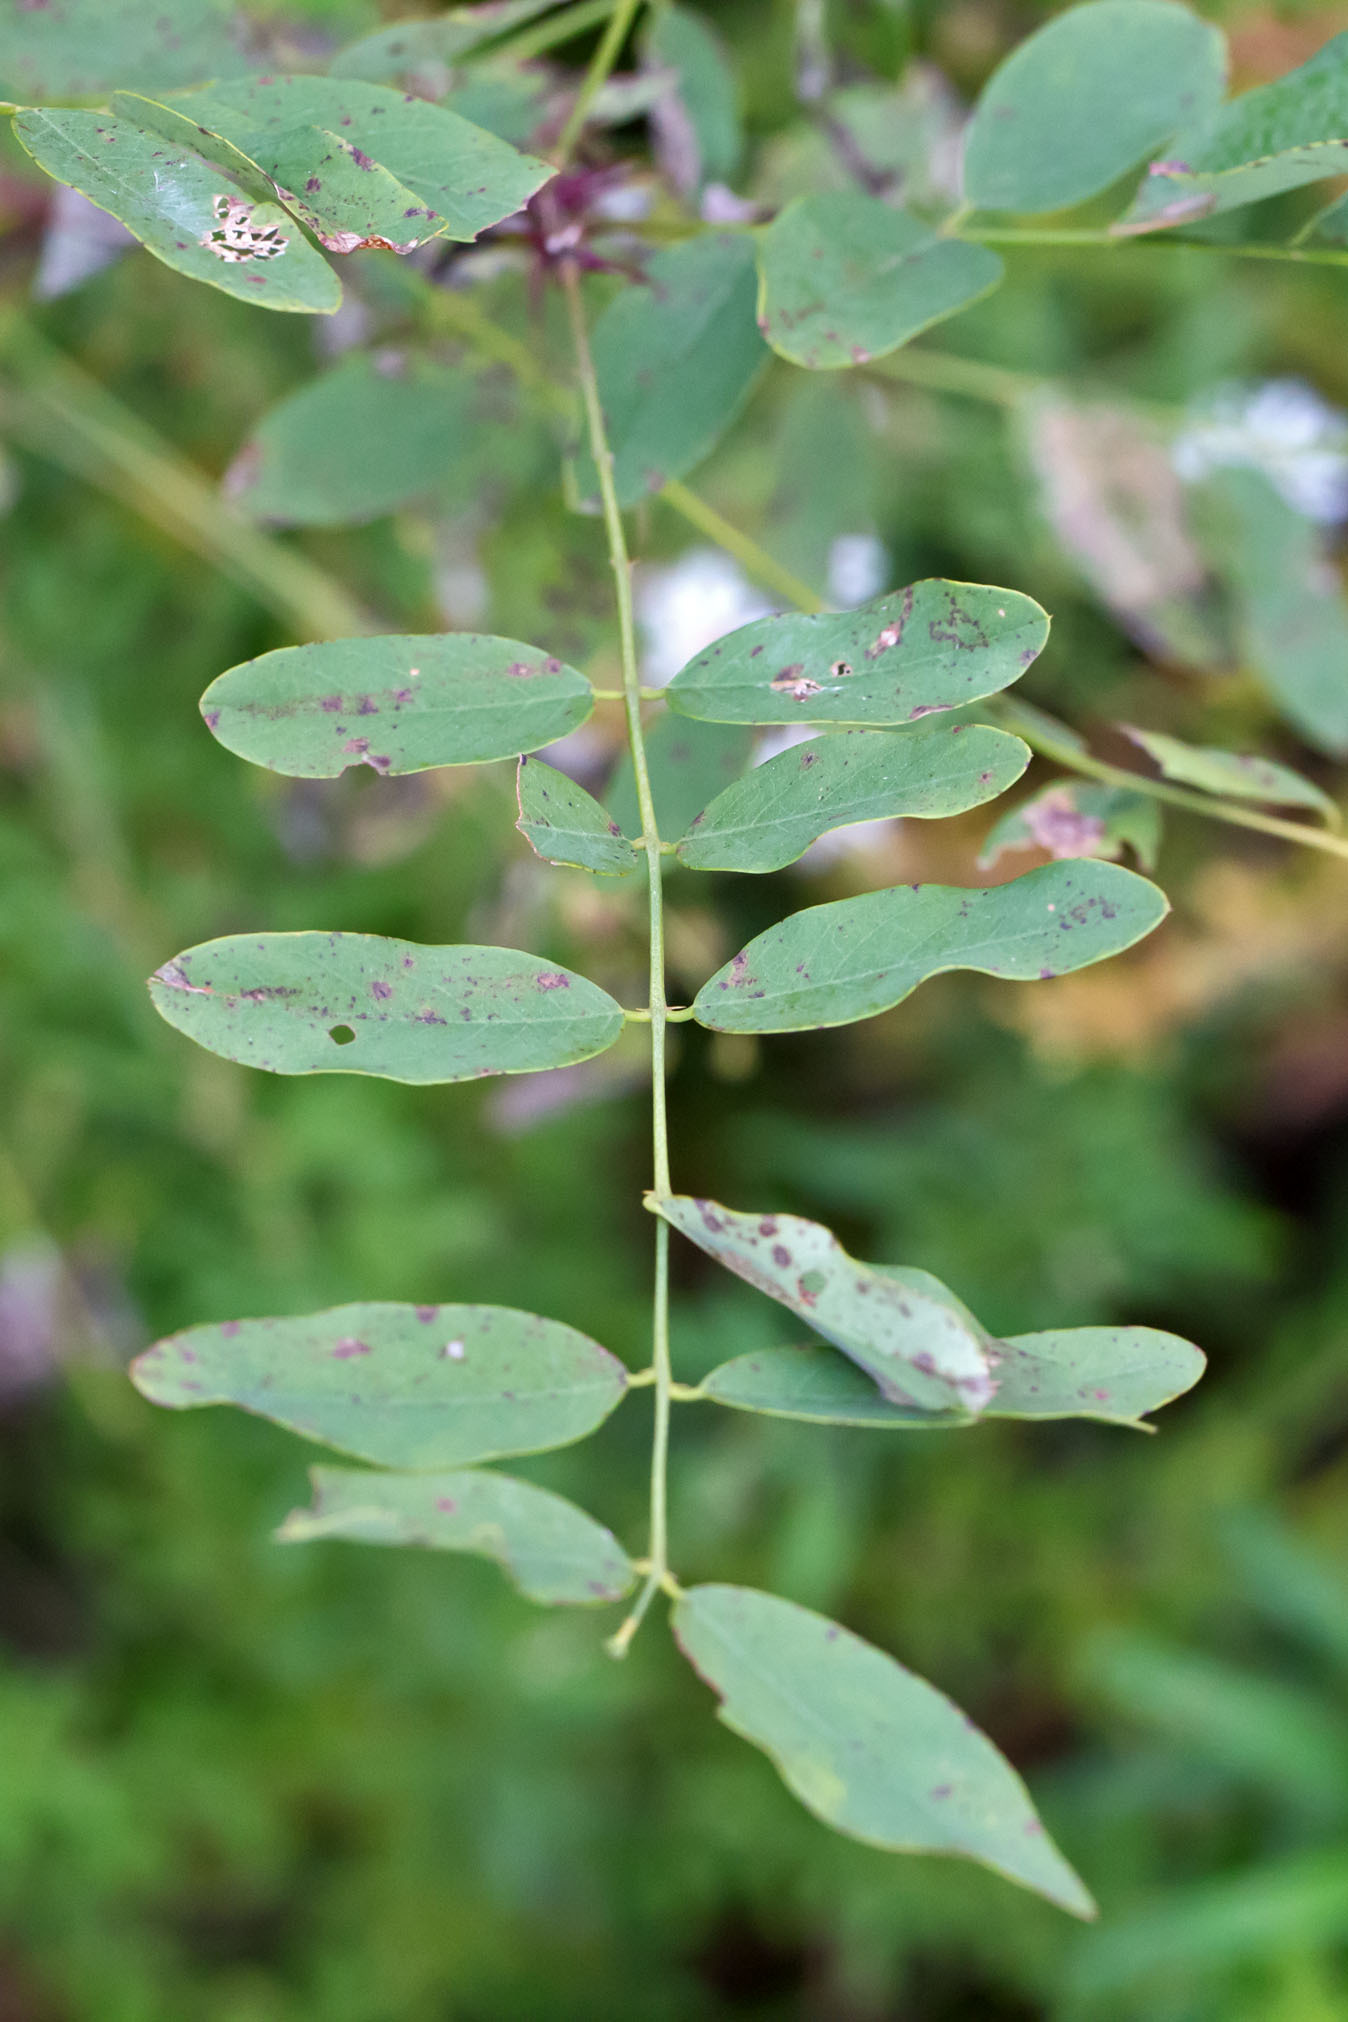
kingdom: Plantae
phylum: Tracheophyta
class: Magnoliopsida
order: Fabales
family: Fabaceae
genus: Robinia
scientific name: Robinia pseudoacacia
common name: Black locust
